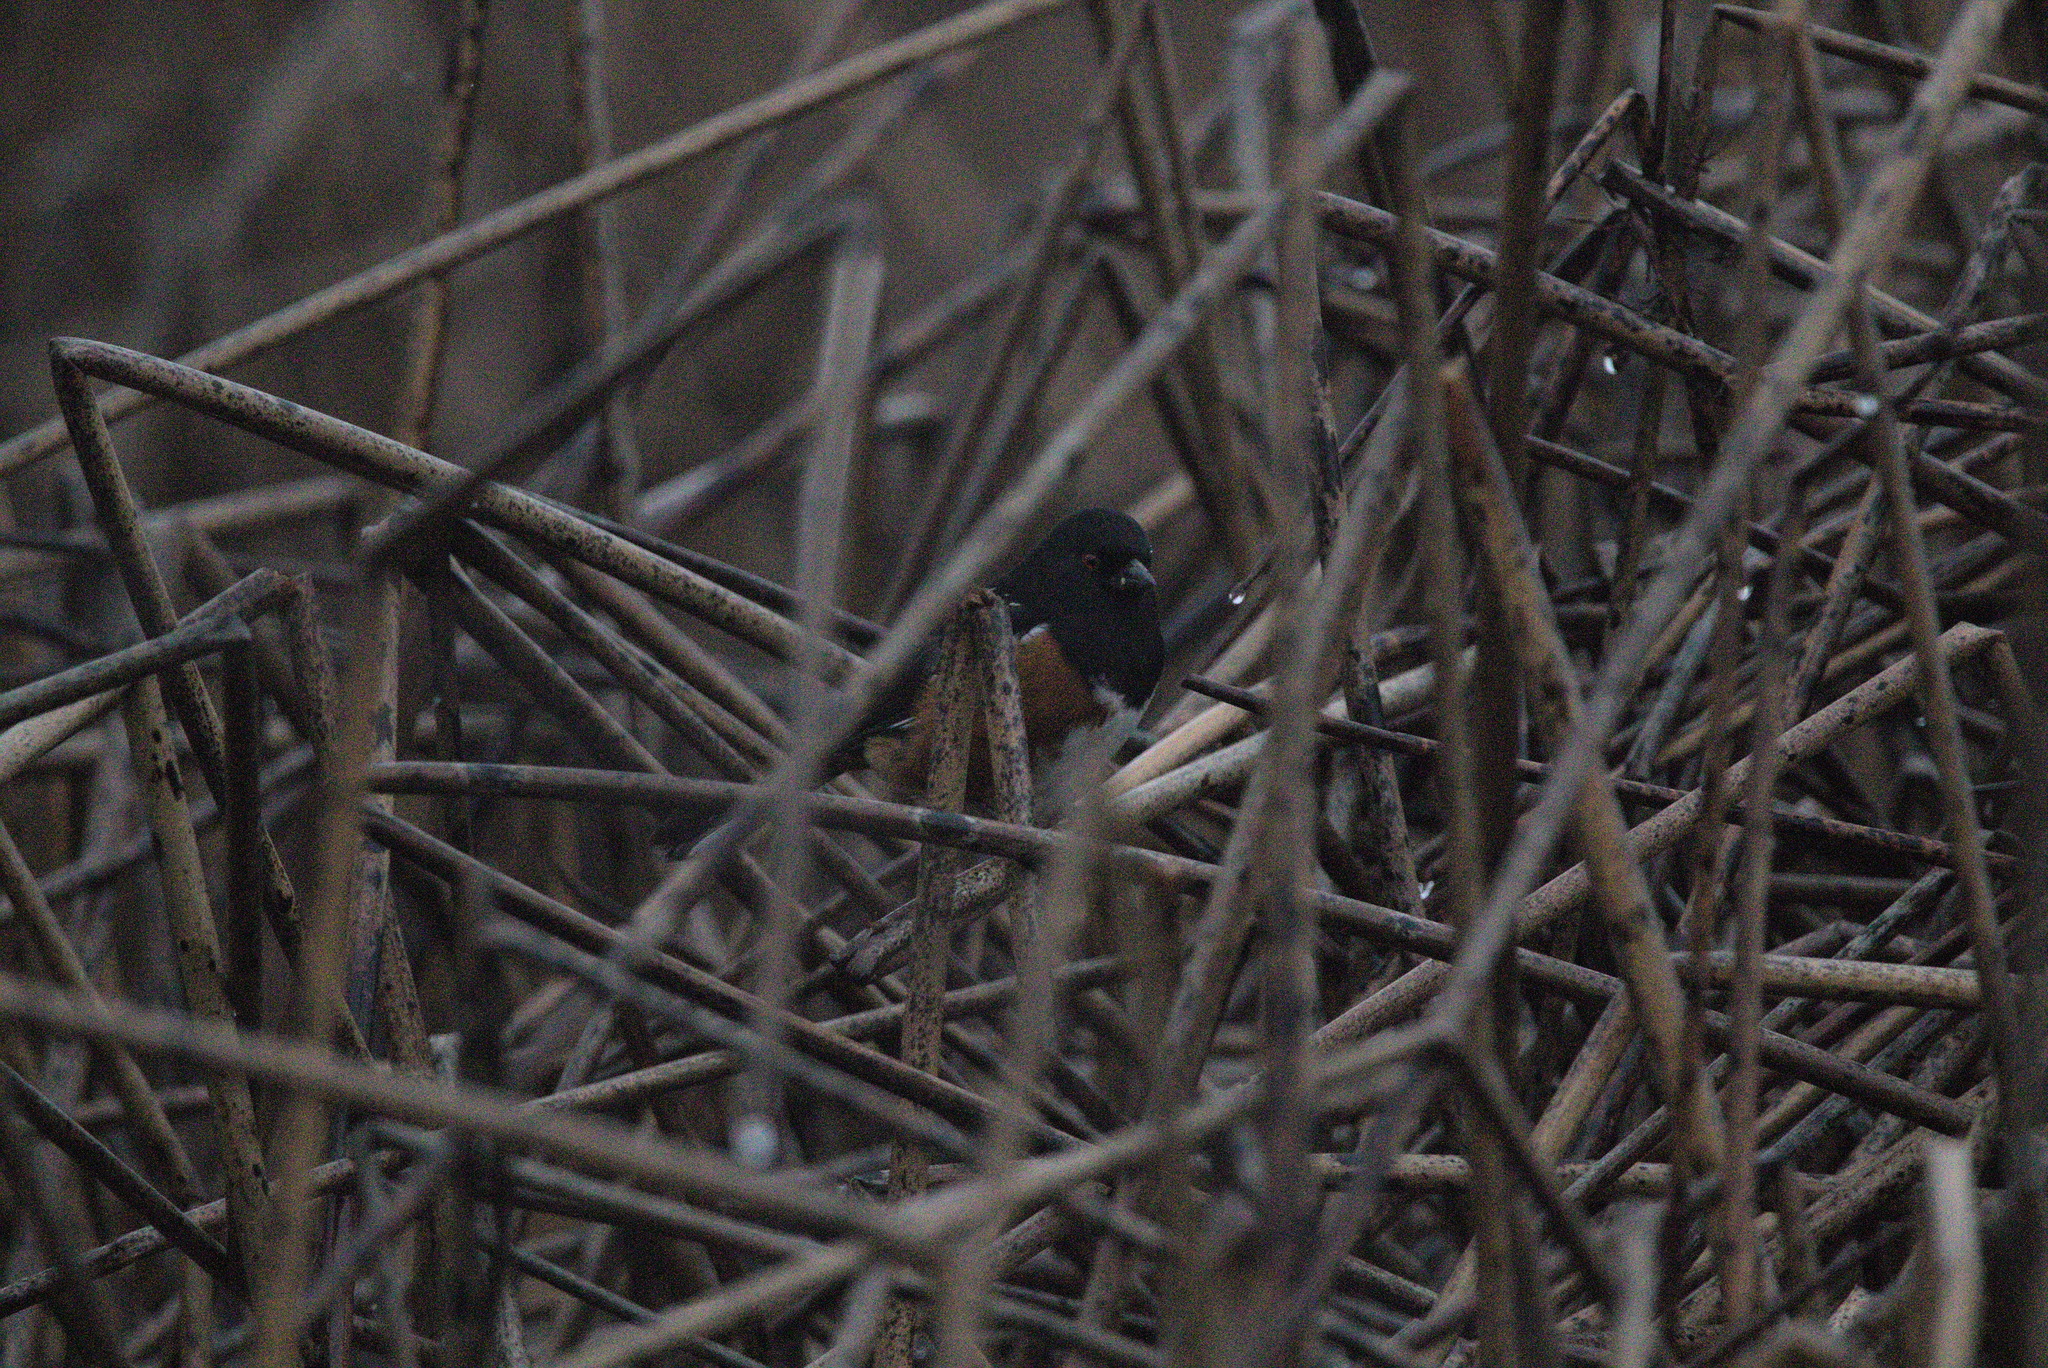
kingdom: Animalia
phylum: Chordata
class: Aves
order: Passeriformes
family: Passerellidae
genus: Pipilo
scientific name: Pipilo maculatus
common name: Spotted towhee
